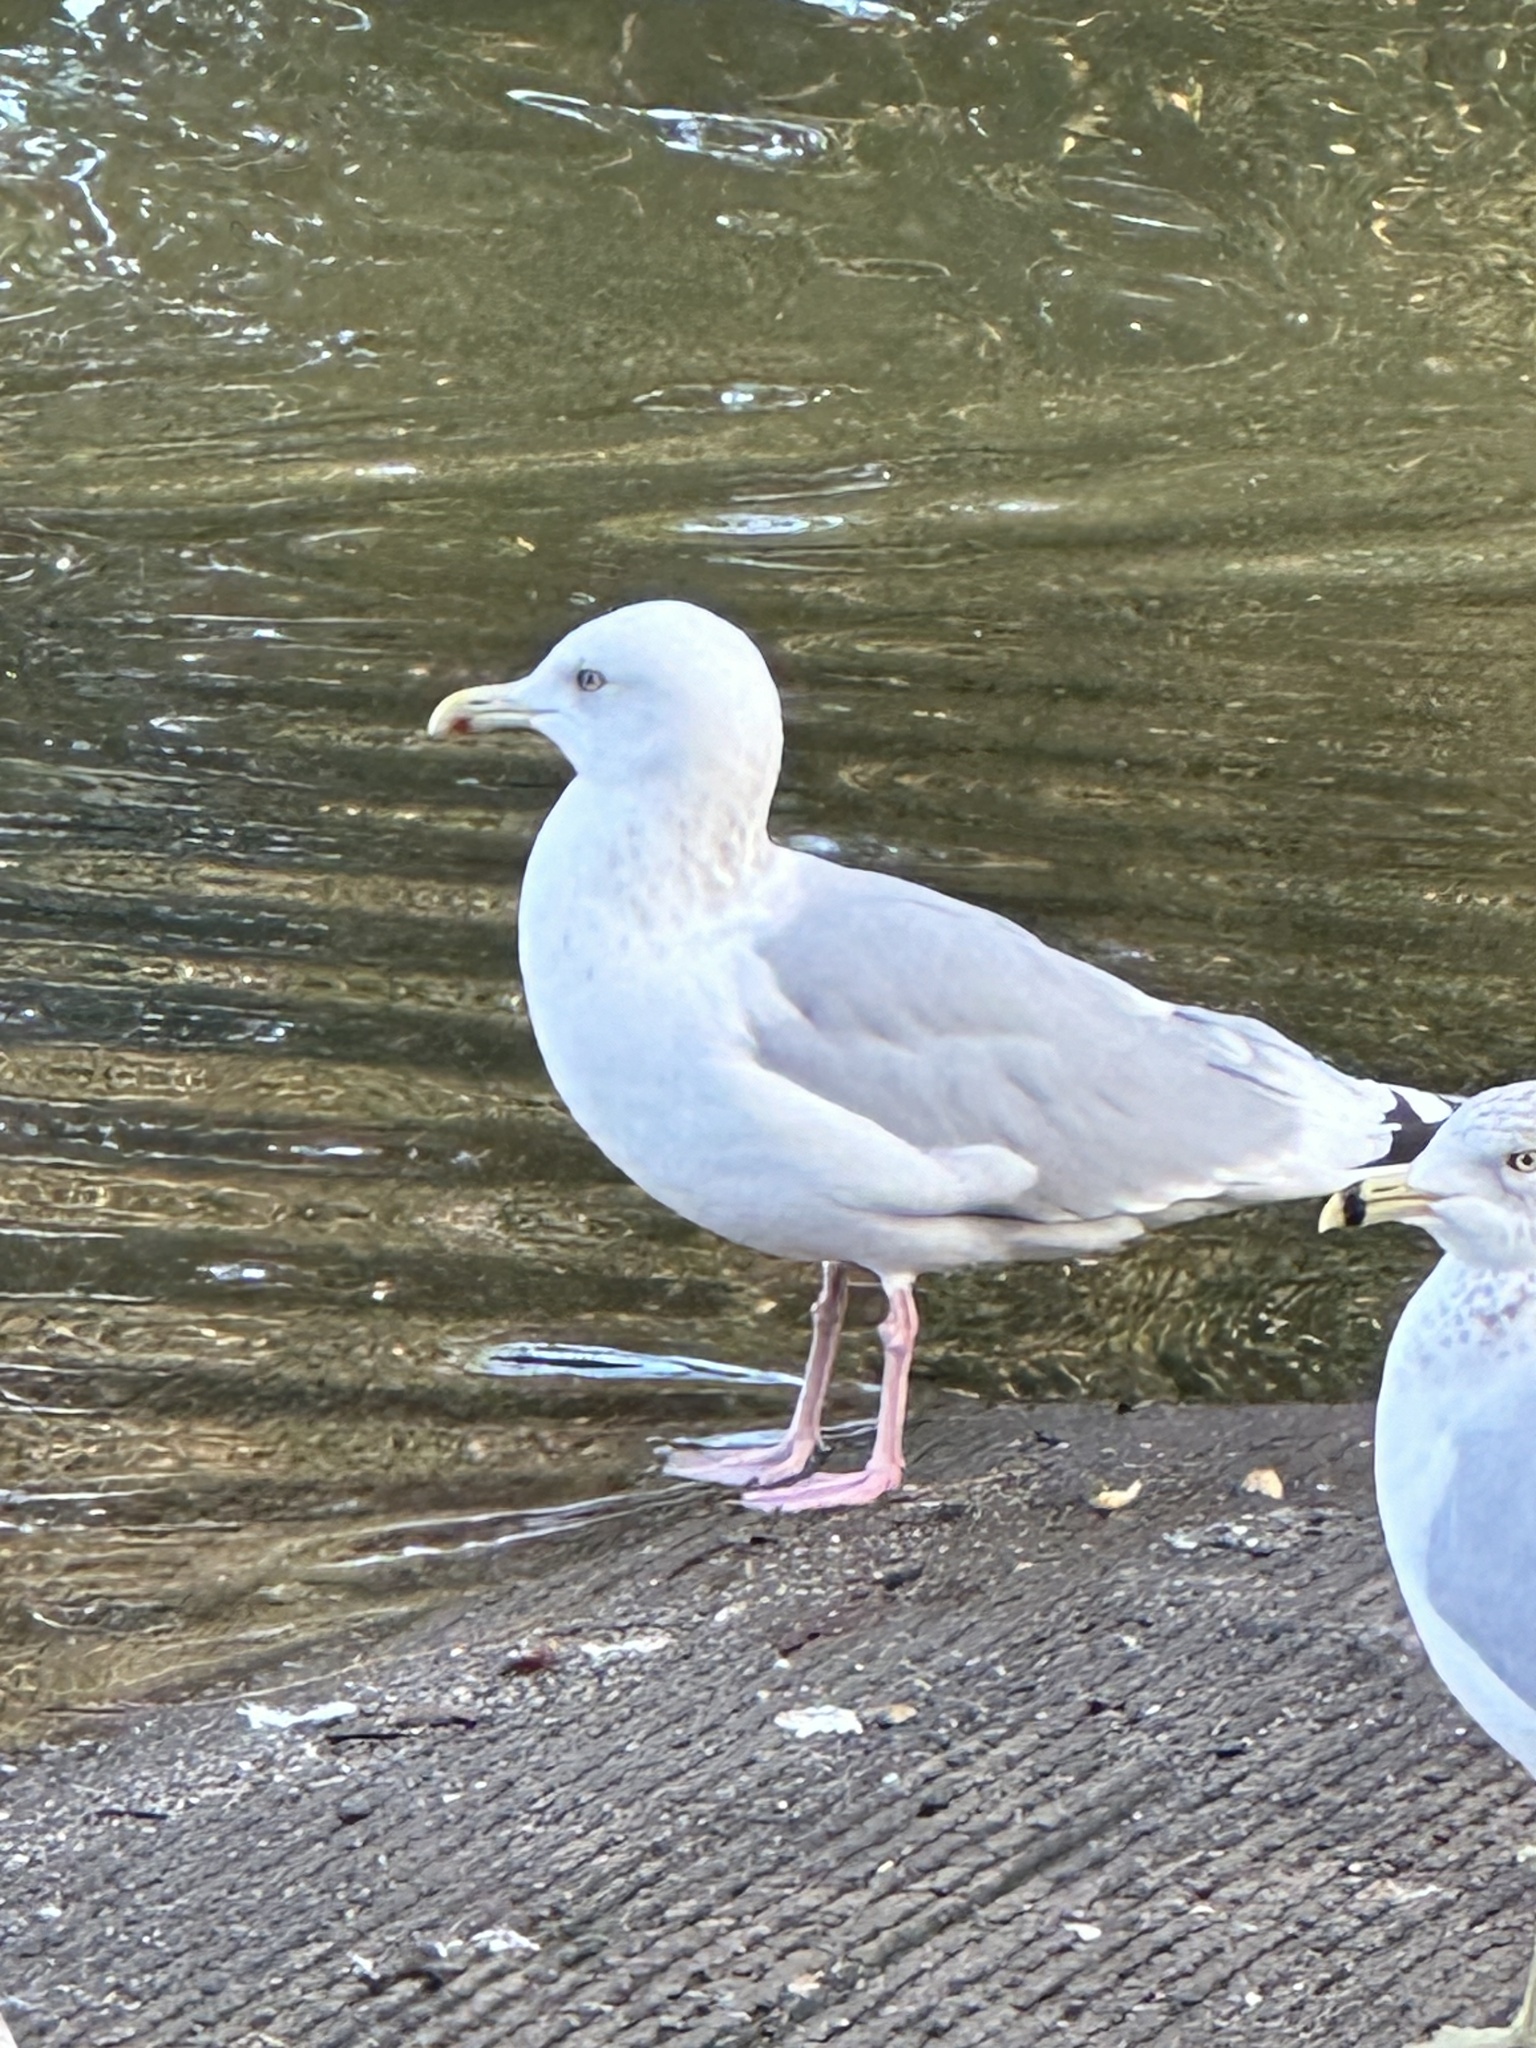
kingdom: Animalia
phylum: Chordata
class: Aves
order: Charadriiformes
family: Laridae
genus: Larus
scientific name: Larus argentatus
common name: Herring gull
